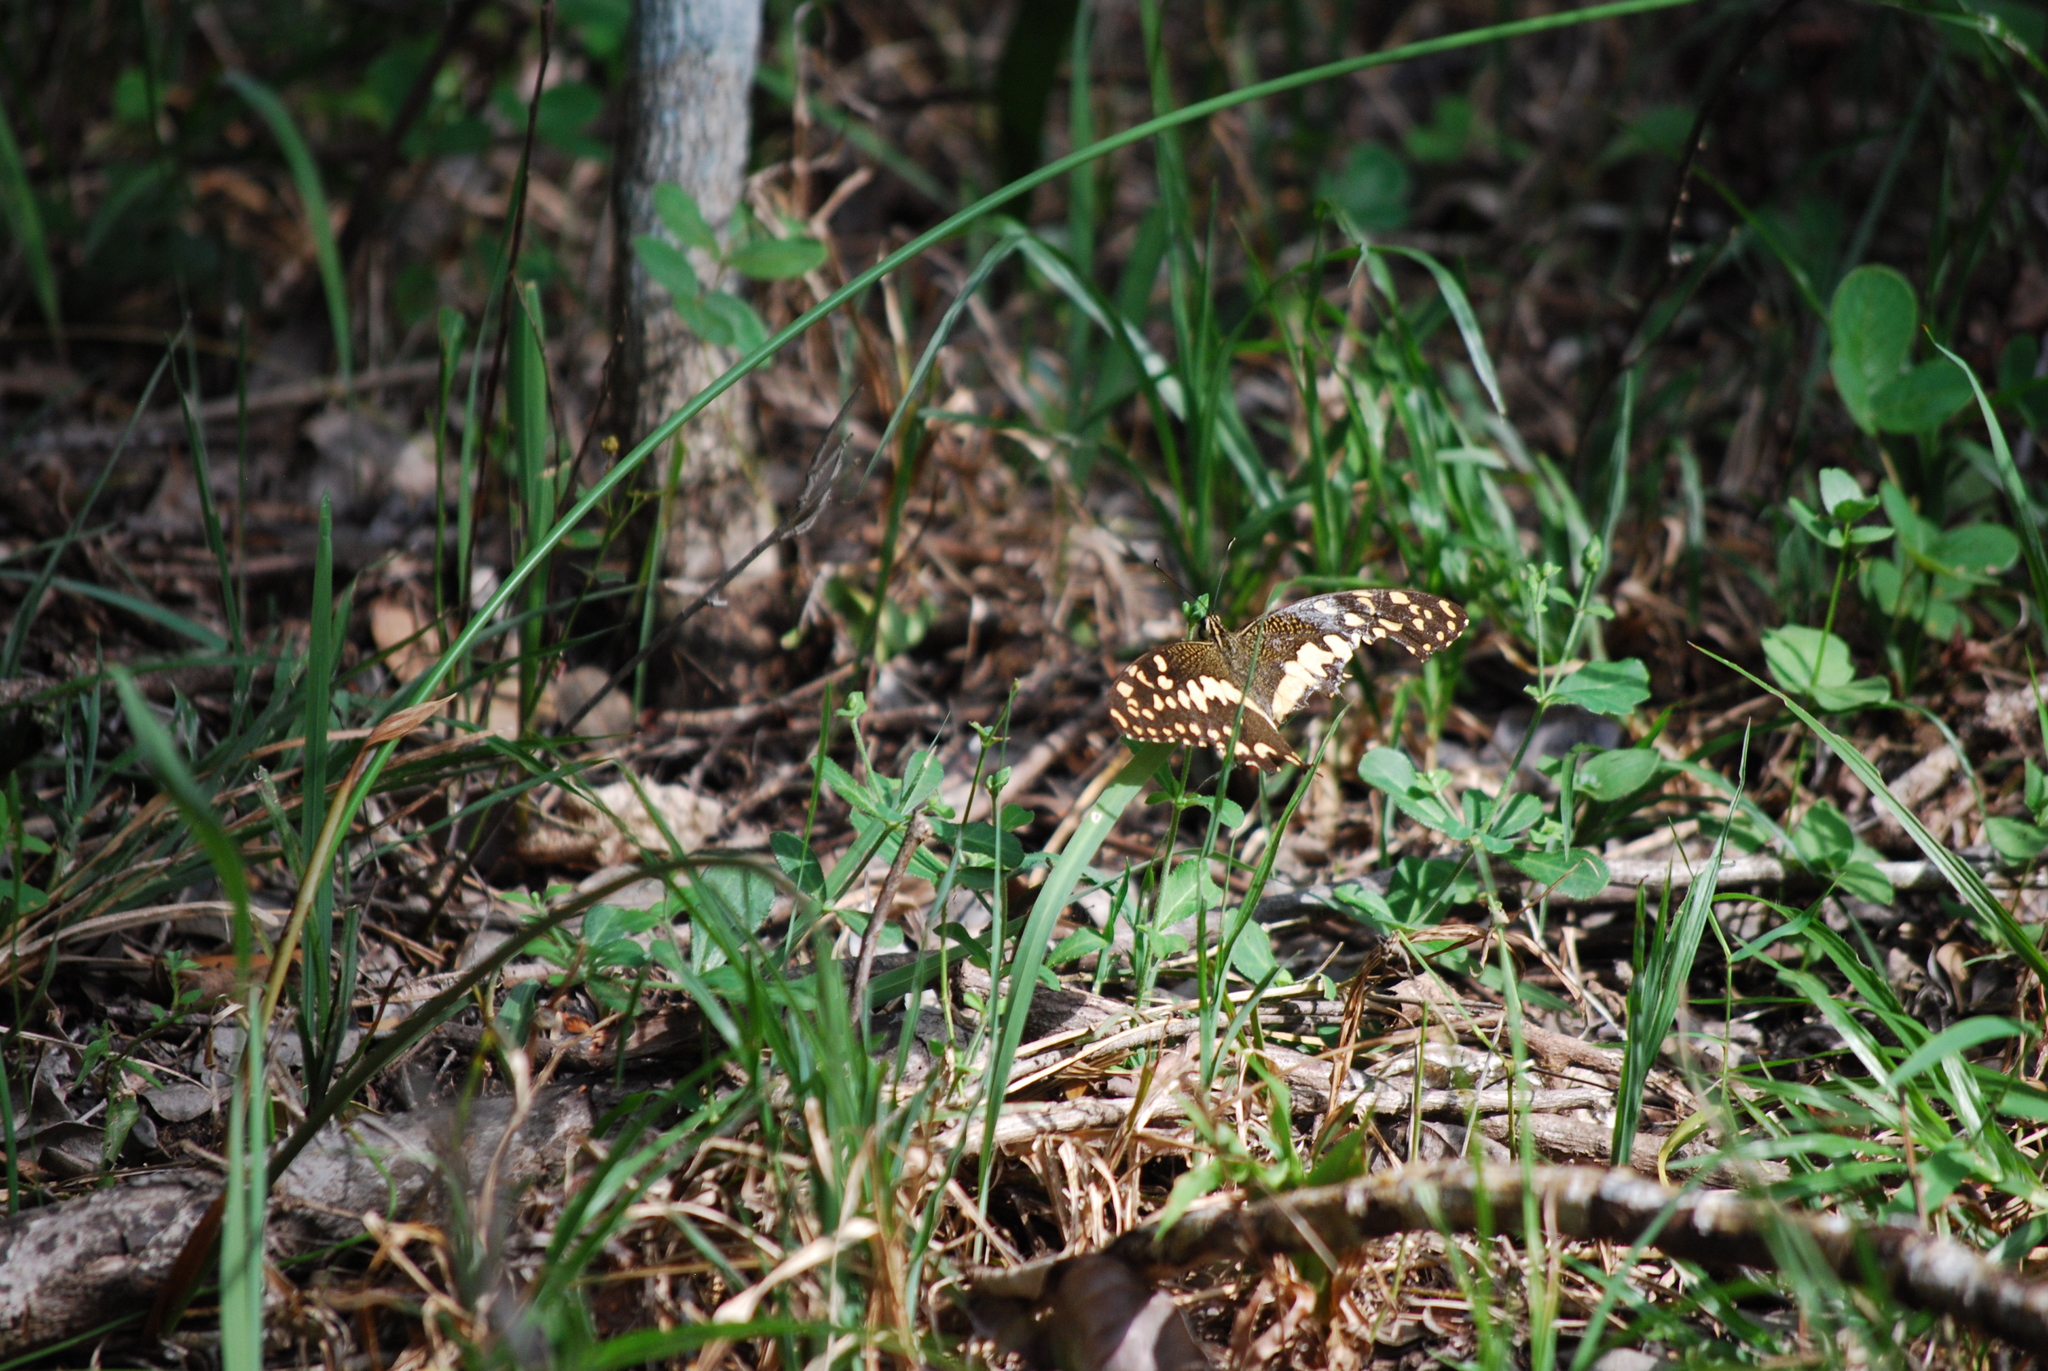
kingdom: Animalia
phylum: Arthropoda
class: Insecta
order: Lepidoptera
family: Papilionidae
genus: Papilio
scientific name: Papilio demodocus
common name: Christmas butterfly
